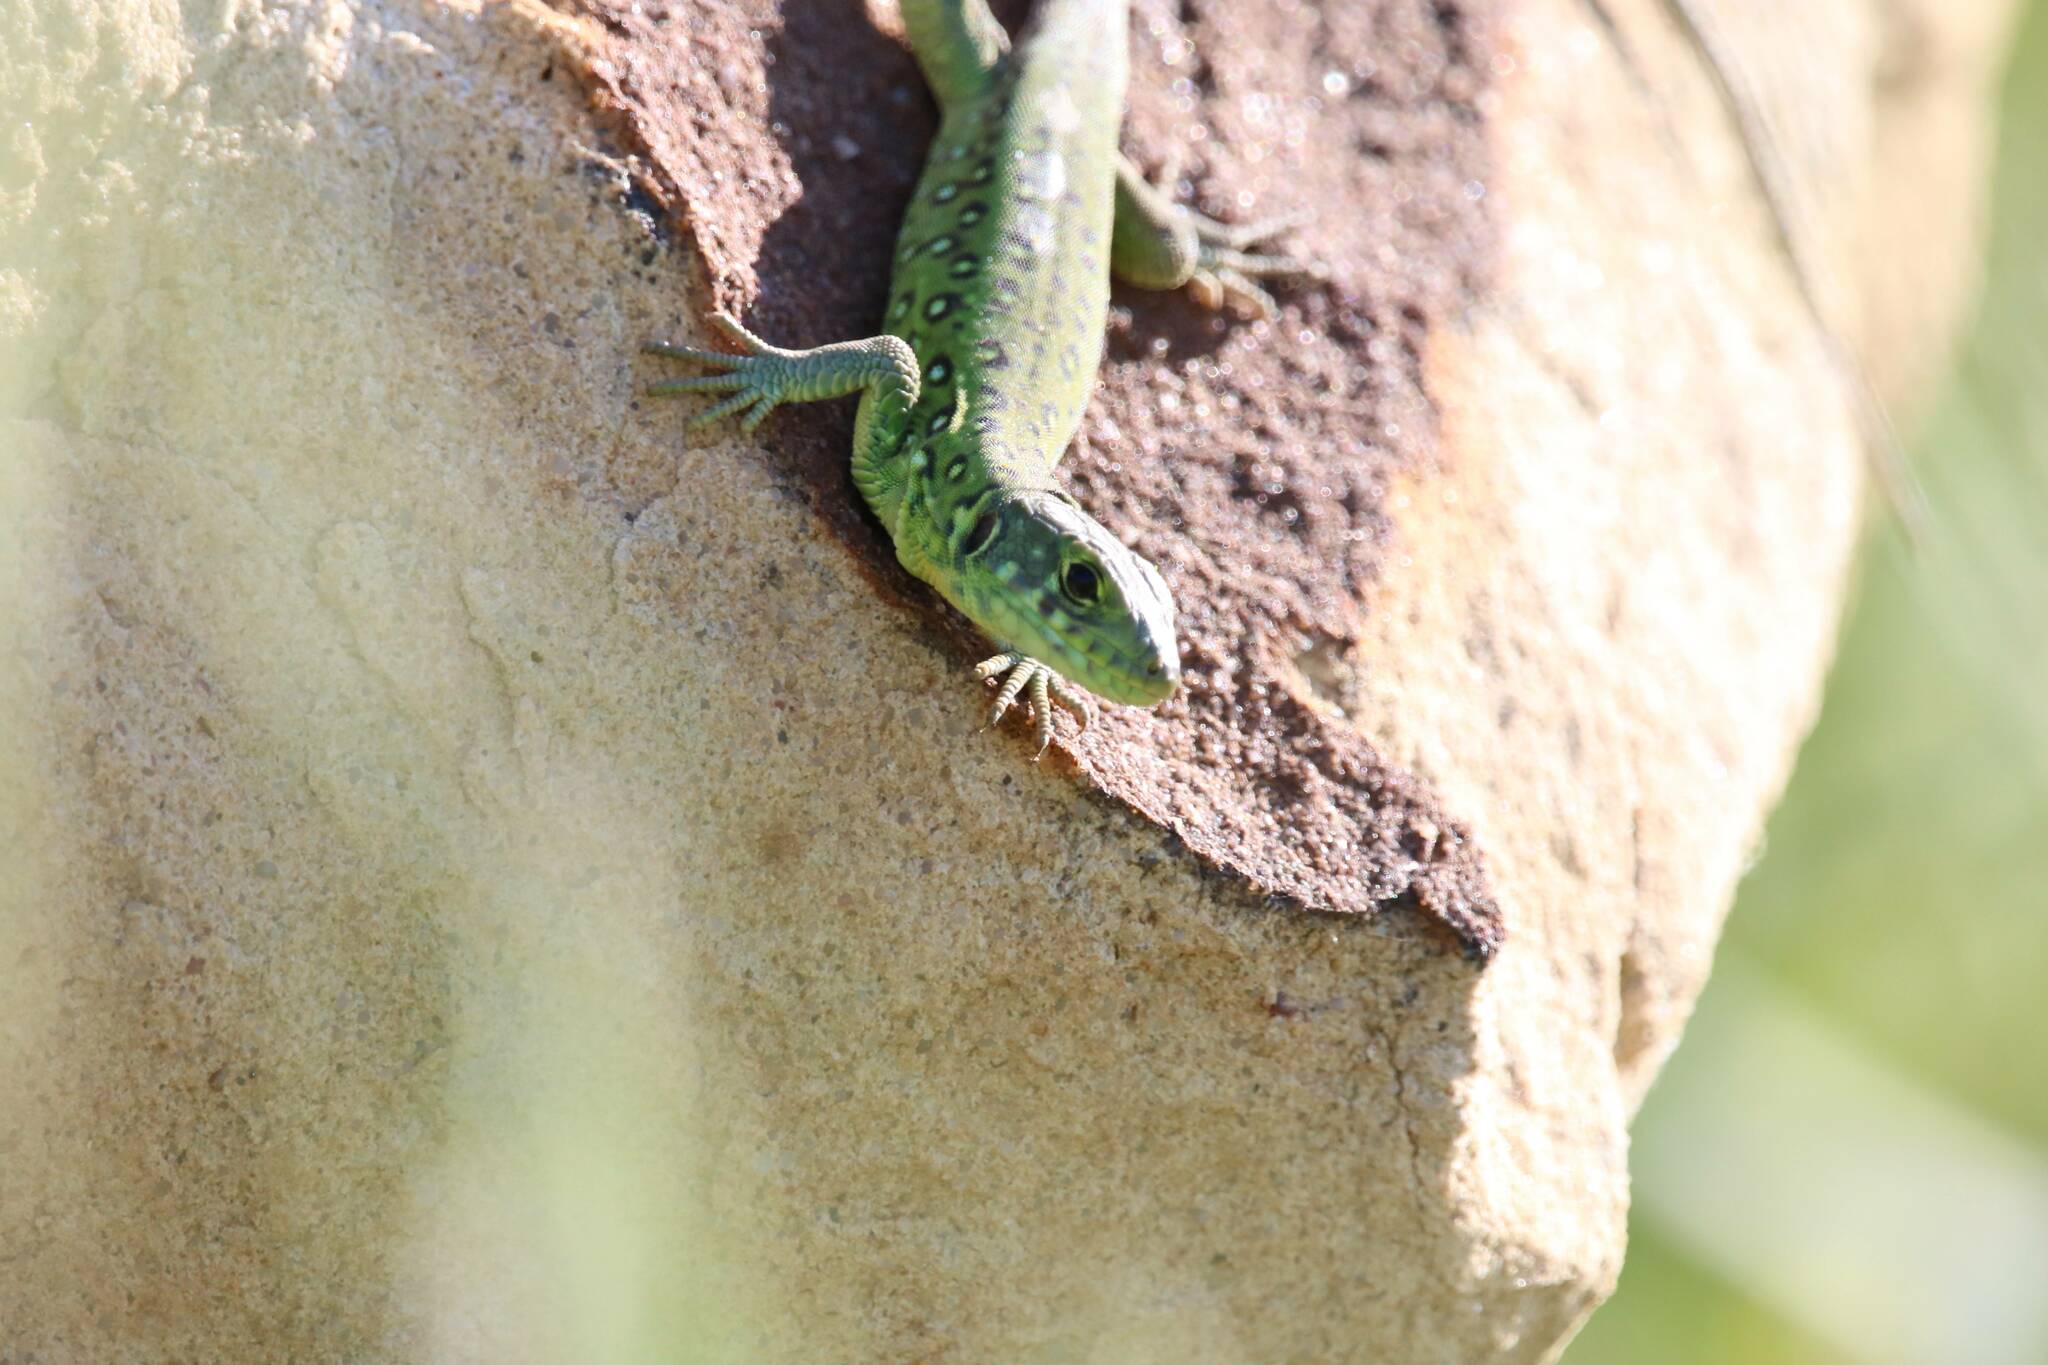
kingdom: Animalia
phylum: Chordata
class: Squamata
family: Lacertidae
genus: Timon
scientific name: Timon pater
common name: North african ocellated lizard
